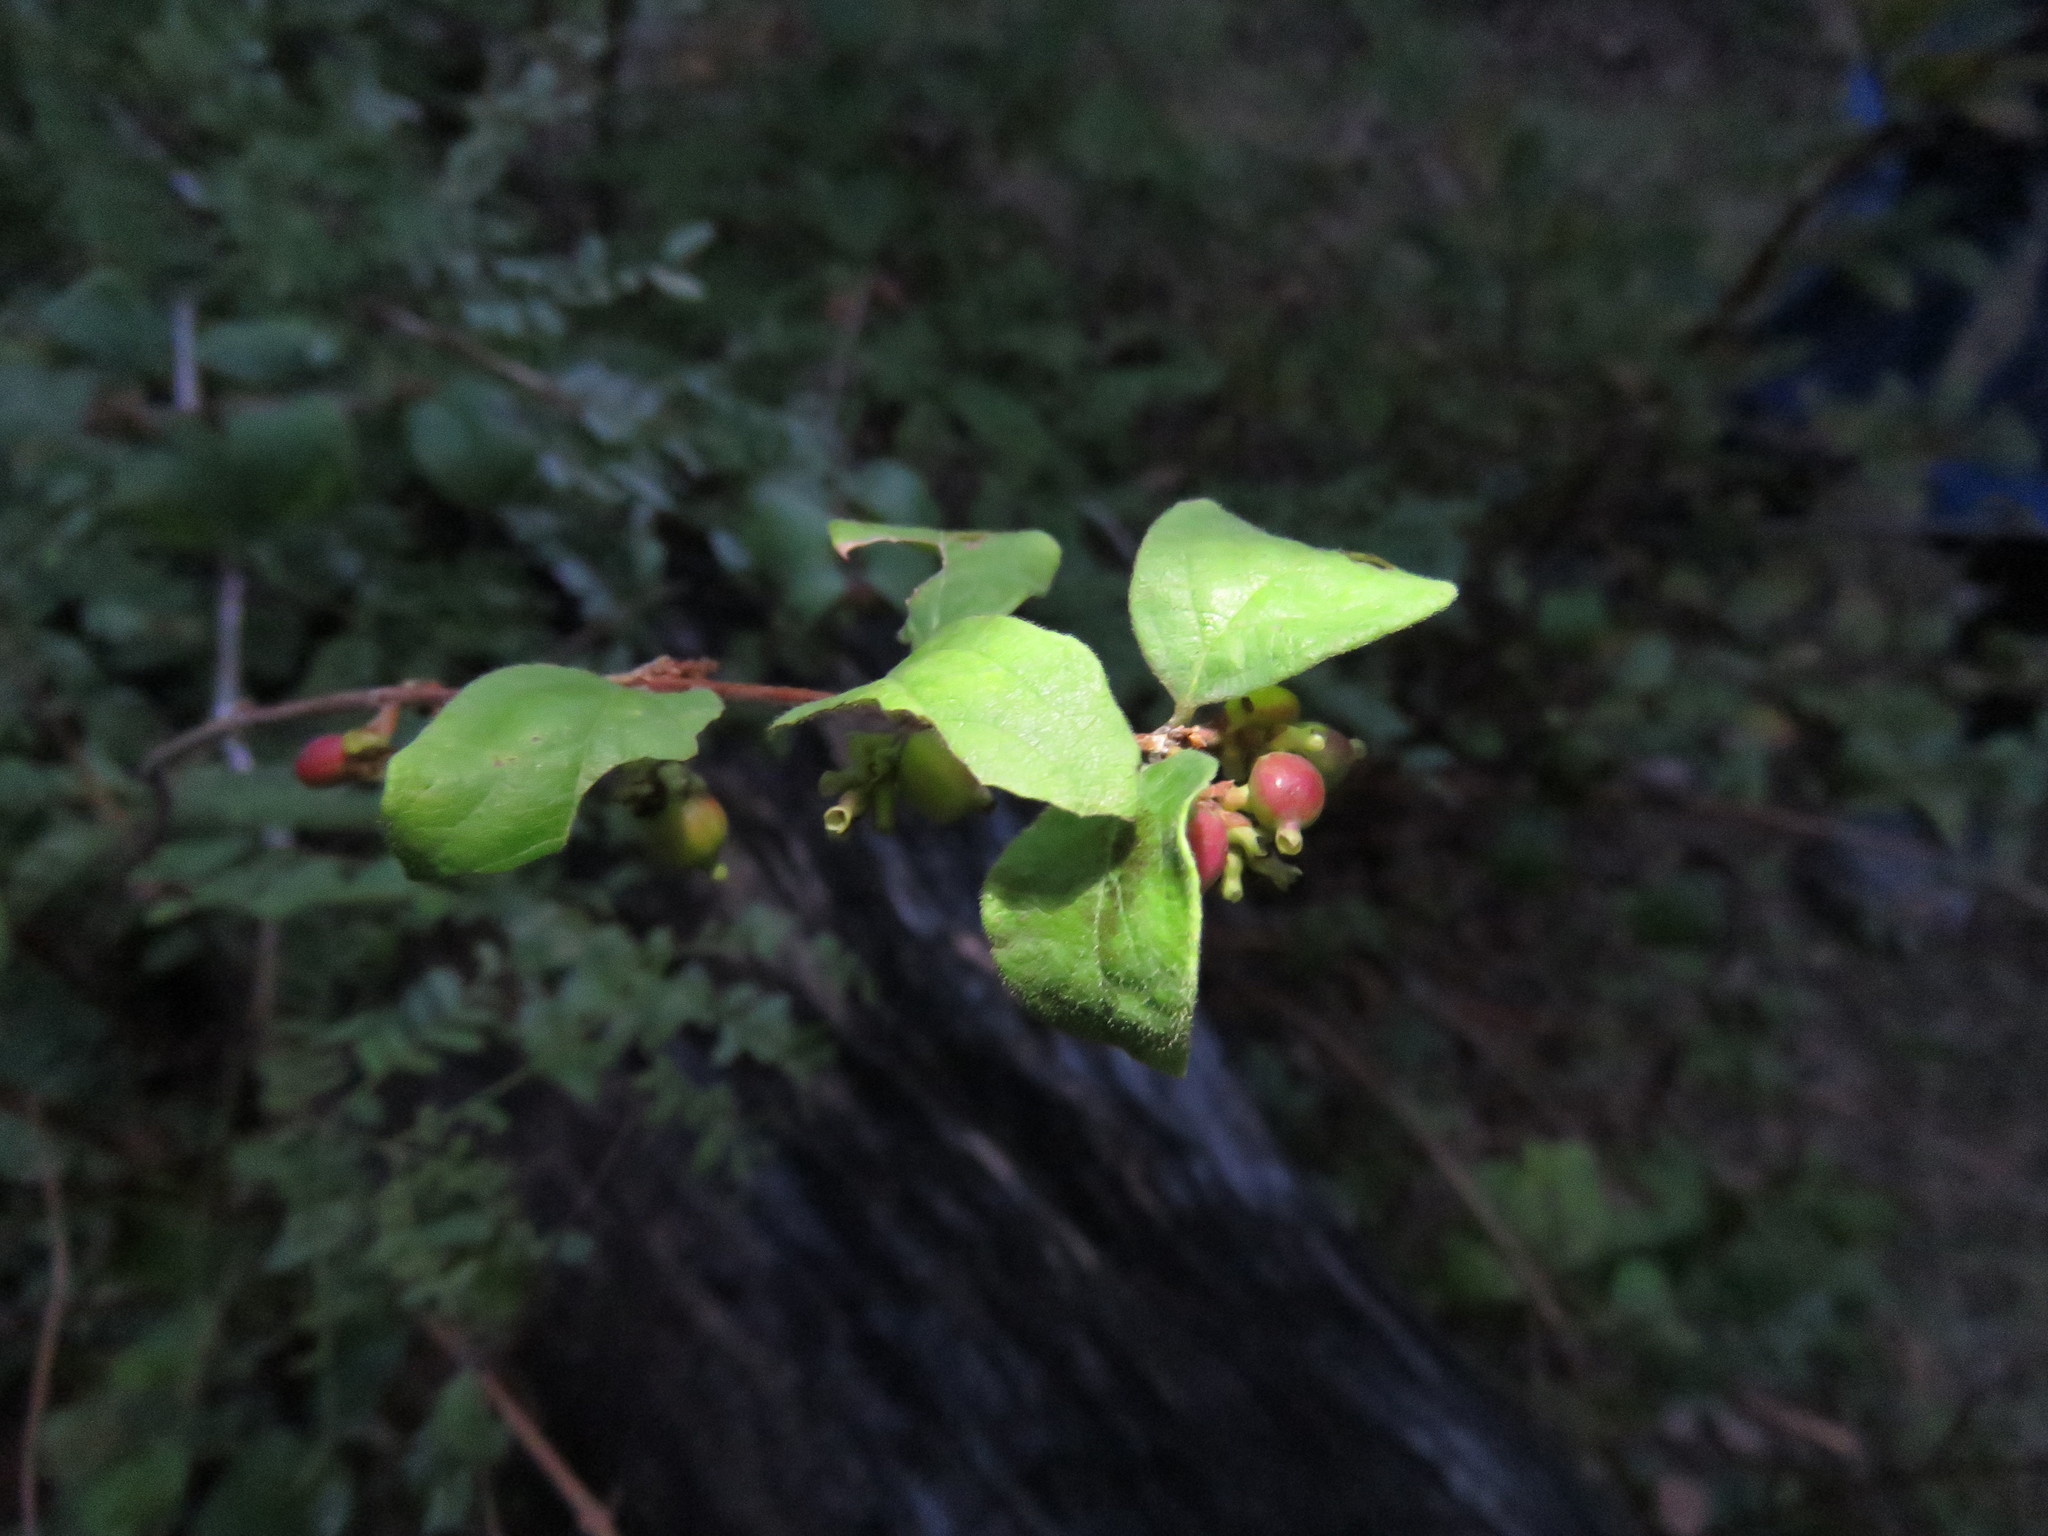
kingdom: Plantae
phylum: Tracheophyta
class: Magnoliopsida
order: Dipsacales
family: Caprifoliaceae
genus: Symphoricarpos
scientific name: Symphoricarpos orbiculatus
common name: Coralberry
